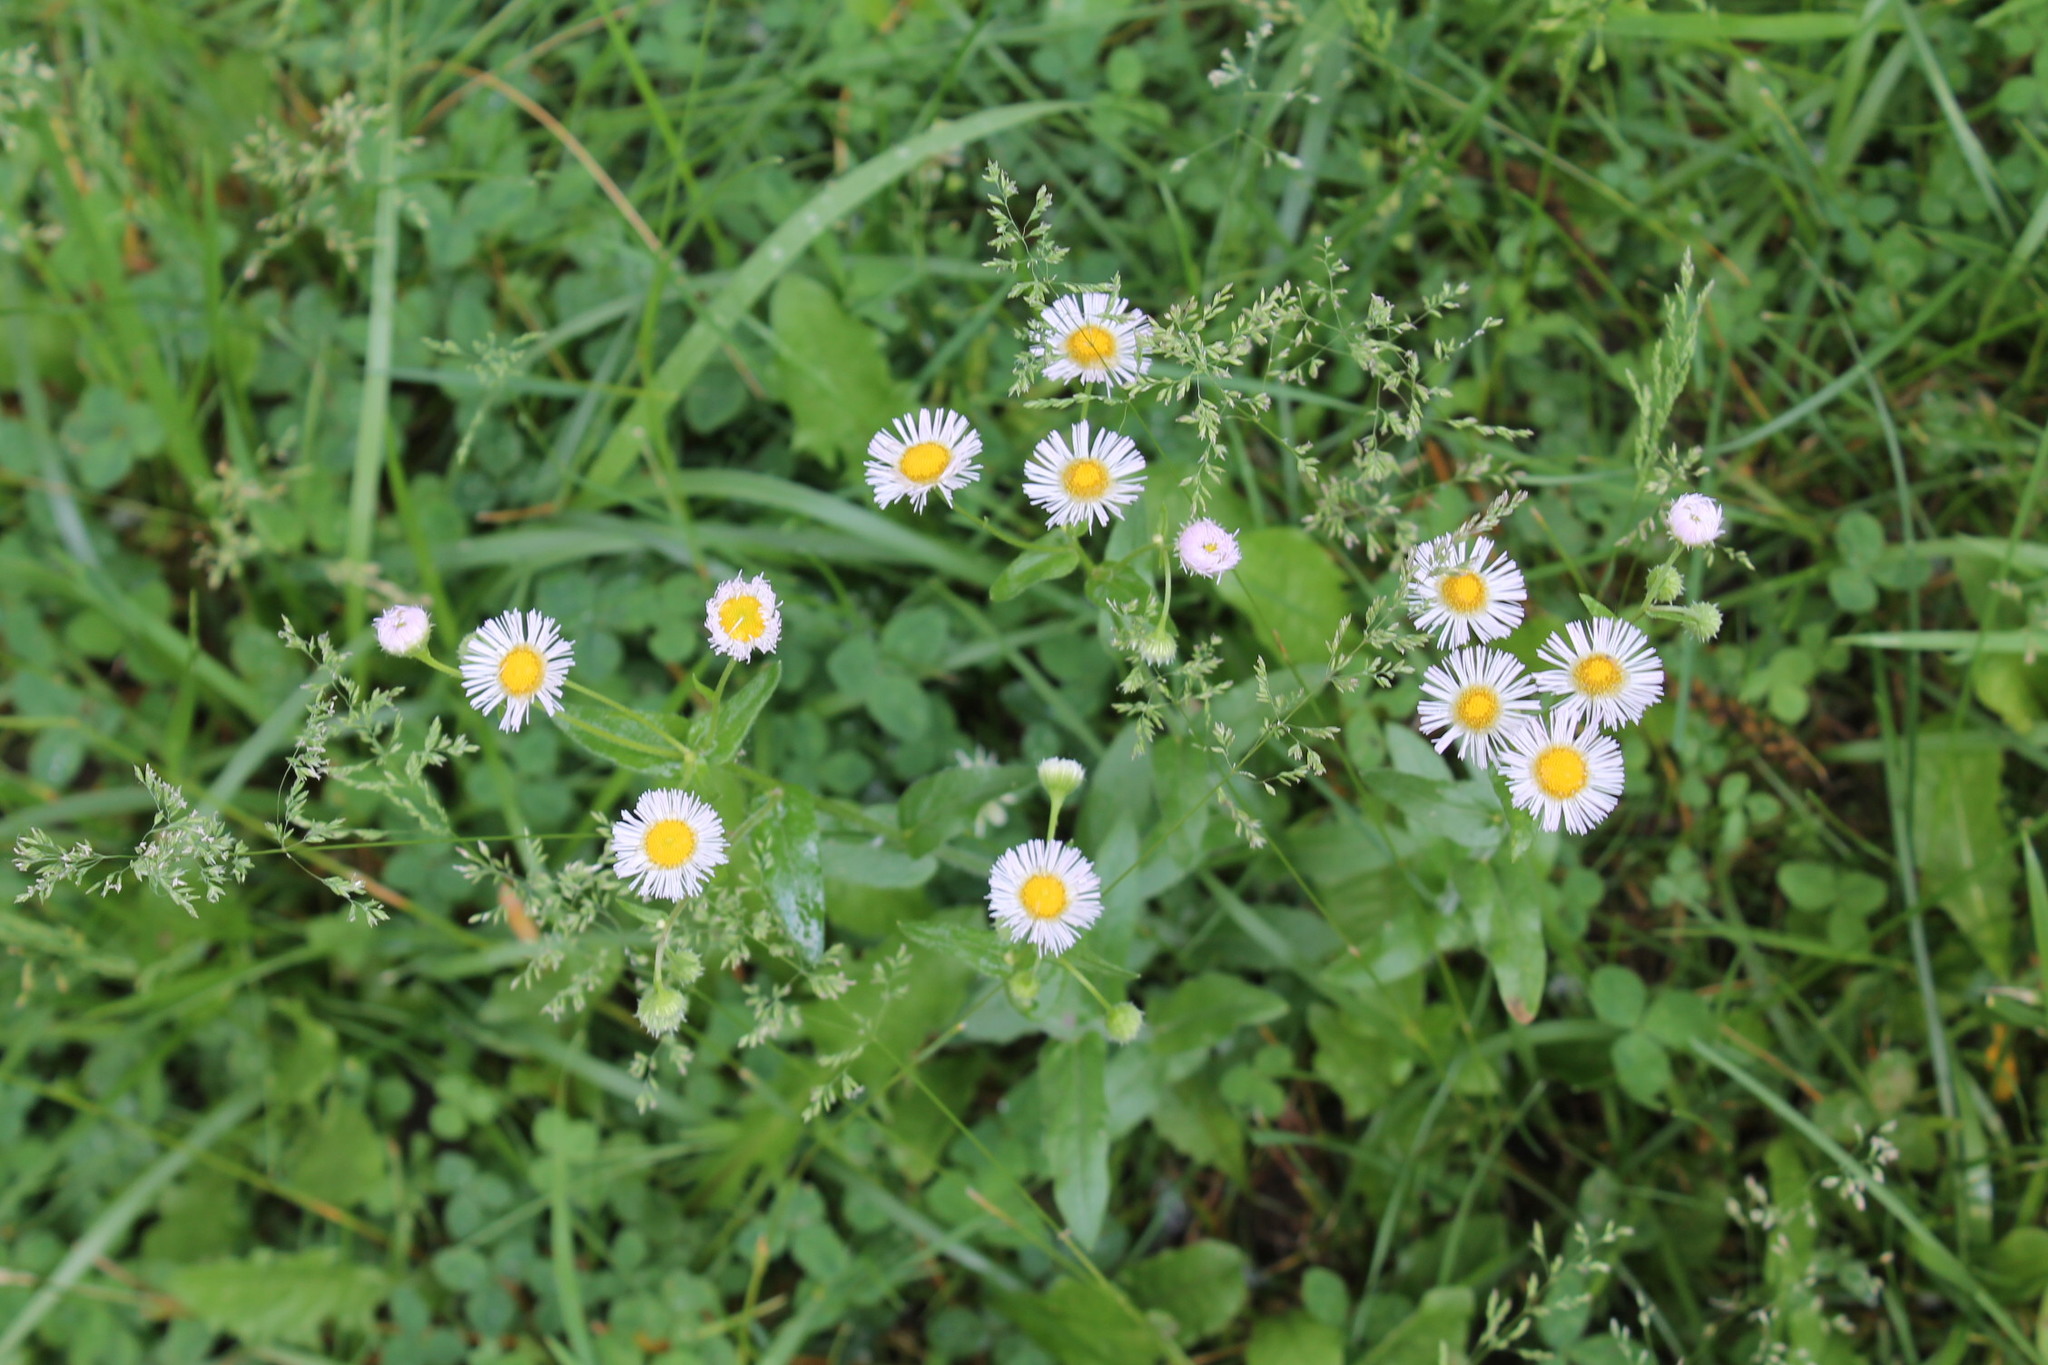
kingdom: Plantae
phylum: Tracheophyta
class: Magnoliopsida
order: Asterales
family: Asteraceae
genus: Erigeron
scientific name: Erigeron philadelphicus
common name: Robin's-plantain
